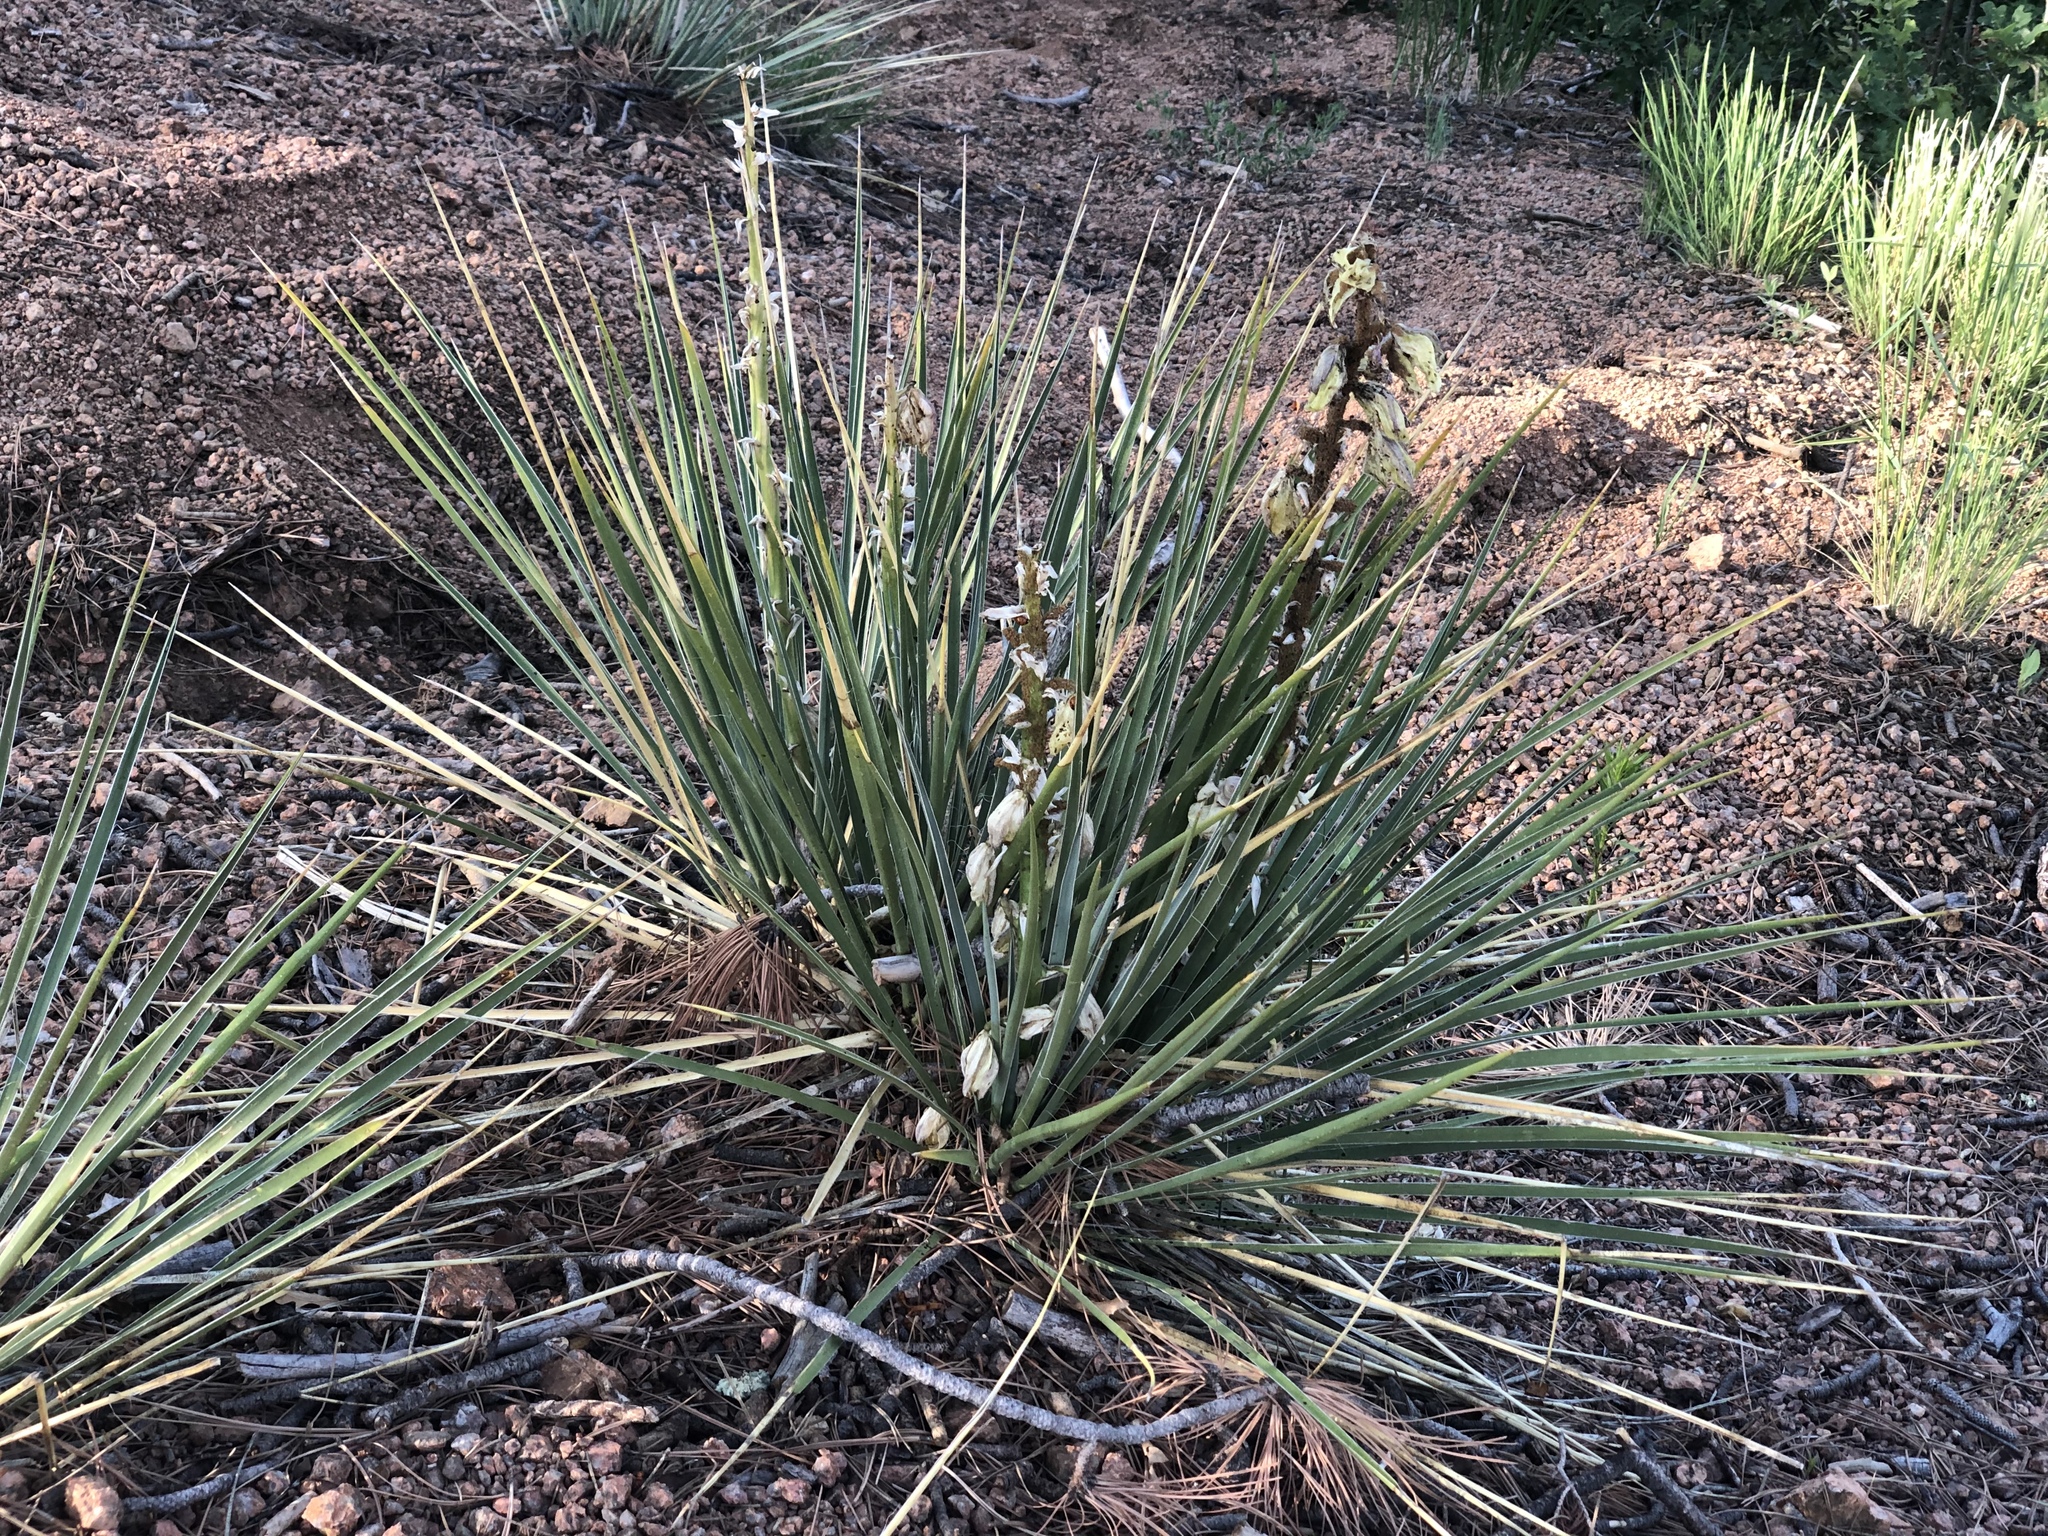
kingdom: Plantae
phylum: Tracheophyta
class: Liliopsida
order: Asparagales
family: Asparagaceae
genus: Yucca
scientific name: Yucca glauca
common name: Great plains yucca
